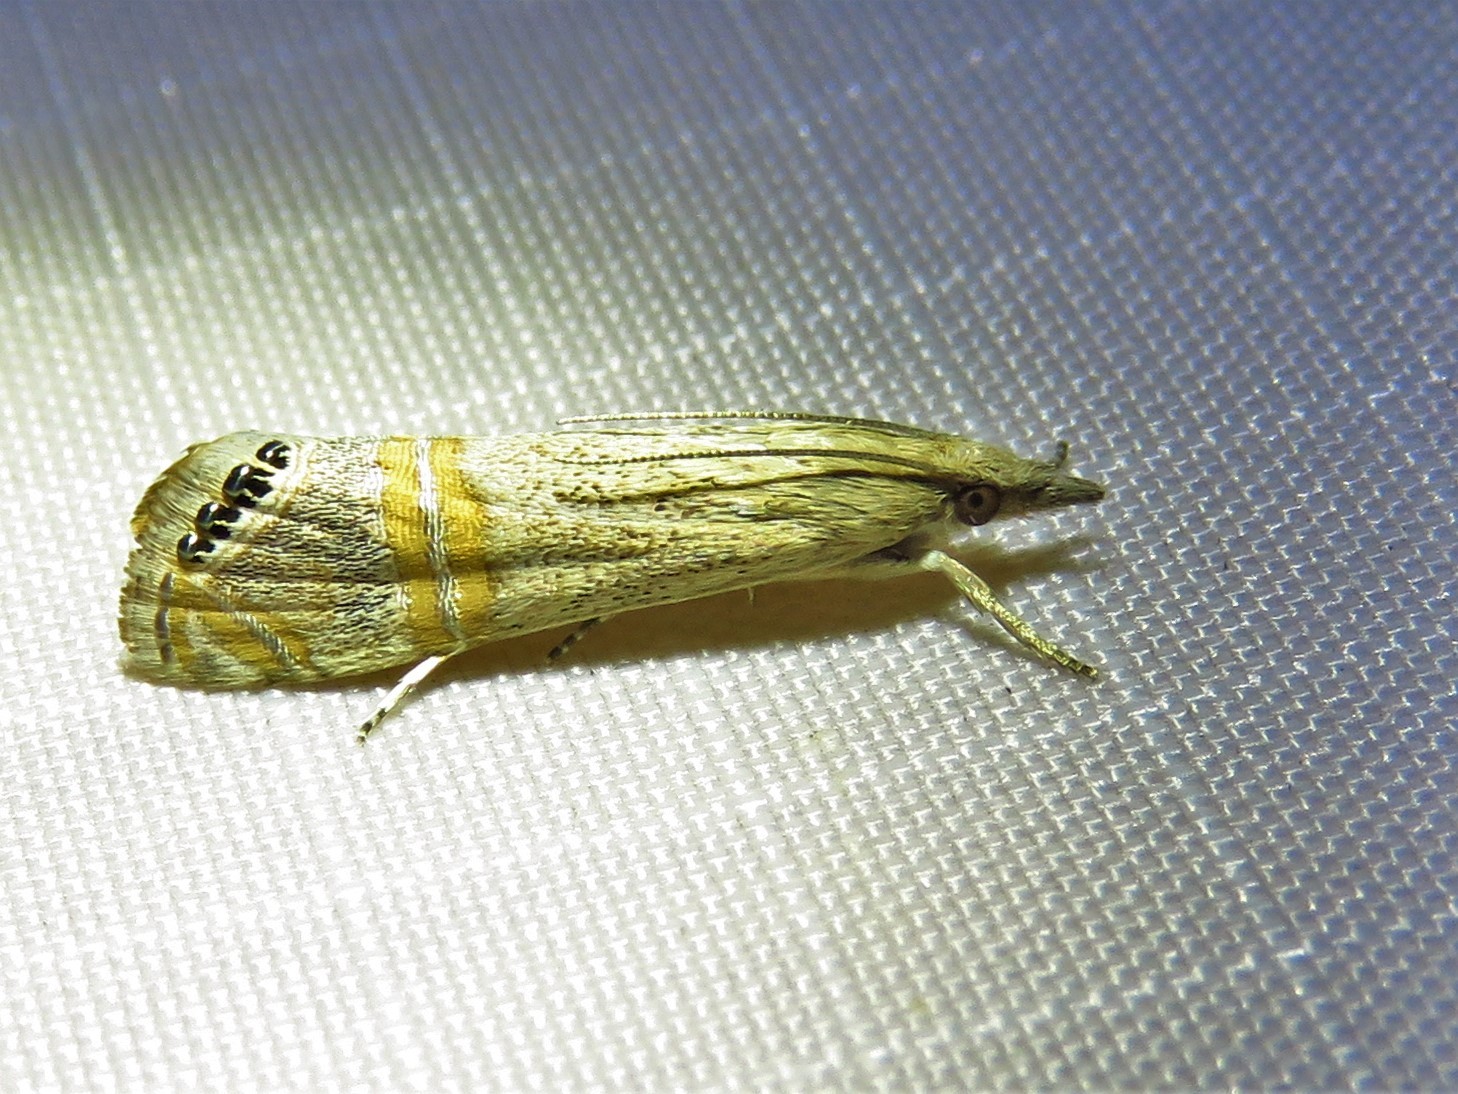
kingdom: Animalia
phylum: Arthropoda
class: Insecta
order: Lepidoptera
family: Crambidae
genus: Euchromius
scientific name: Euchromius ocellea
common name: Necklace veneer moth
